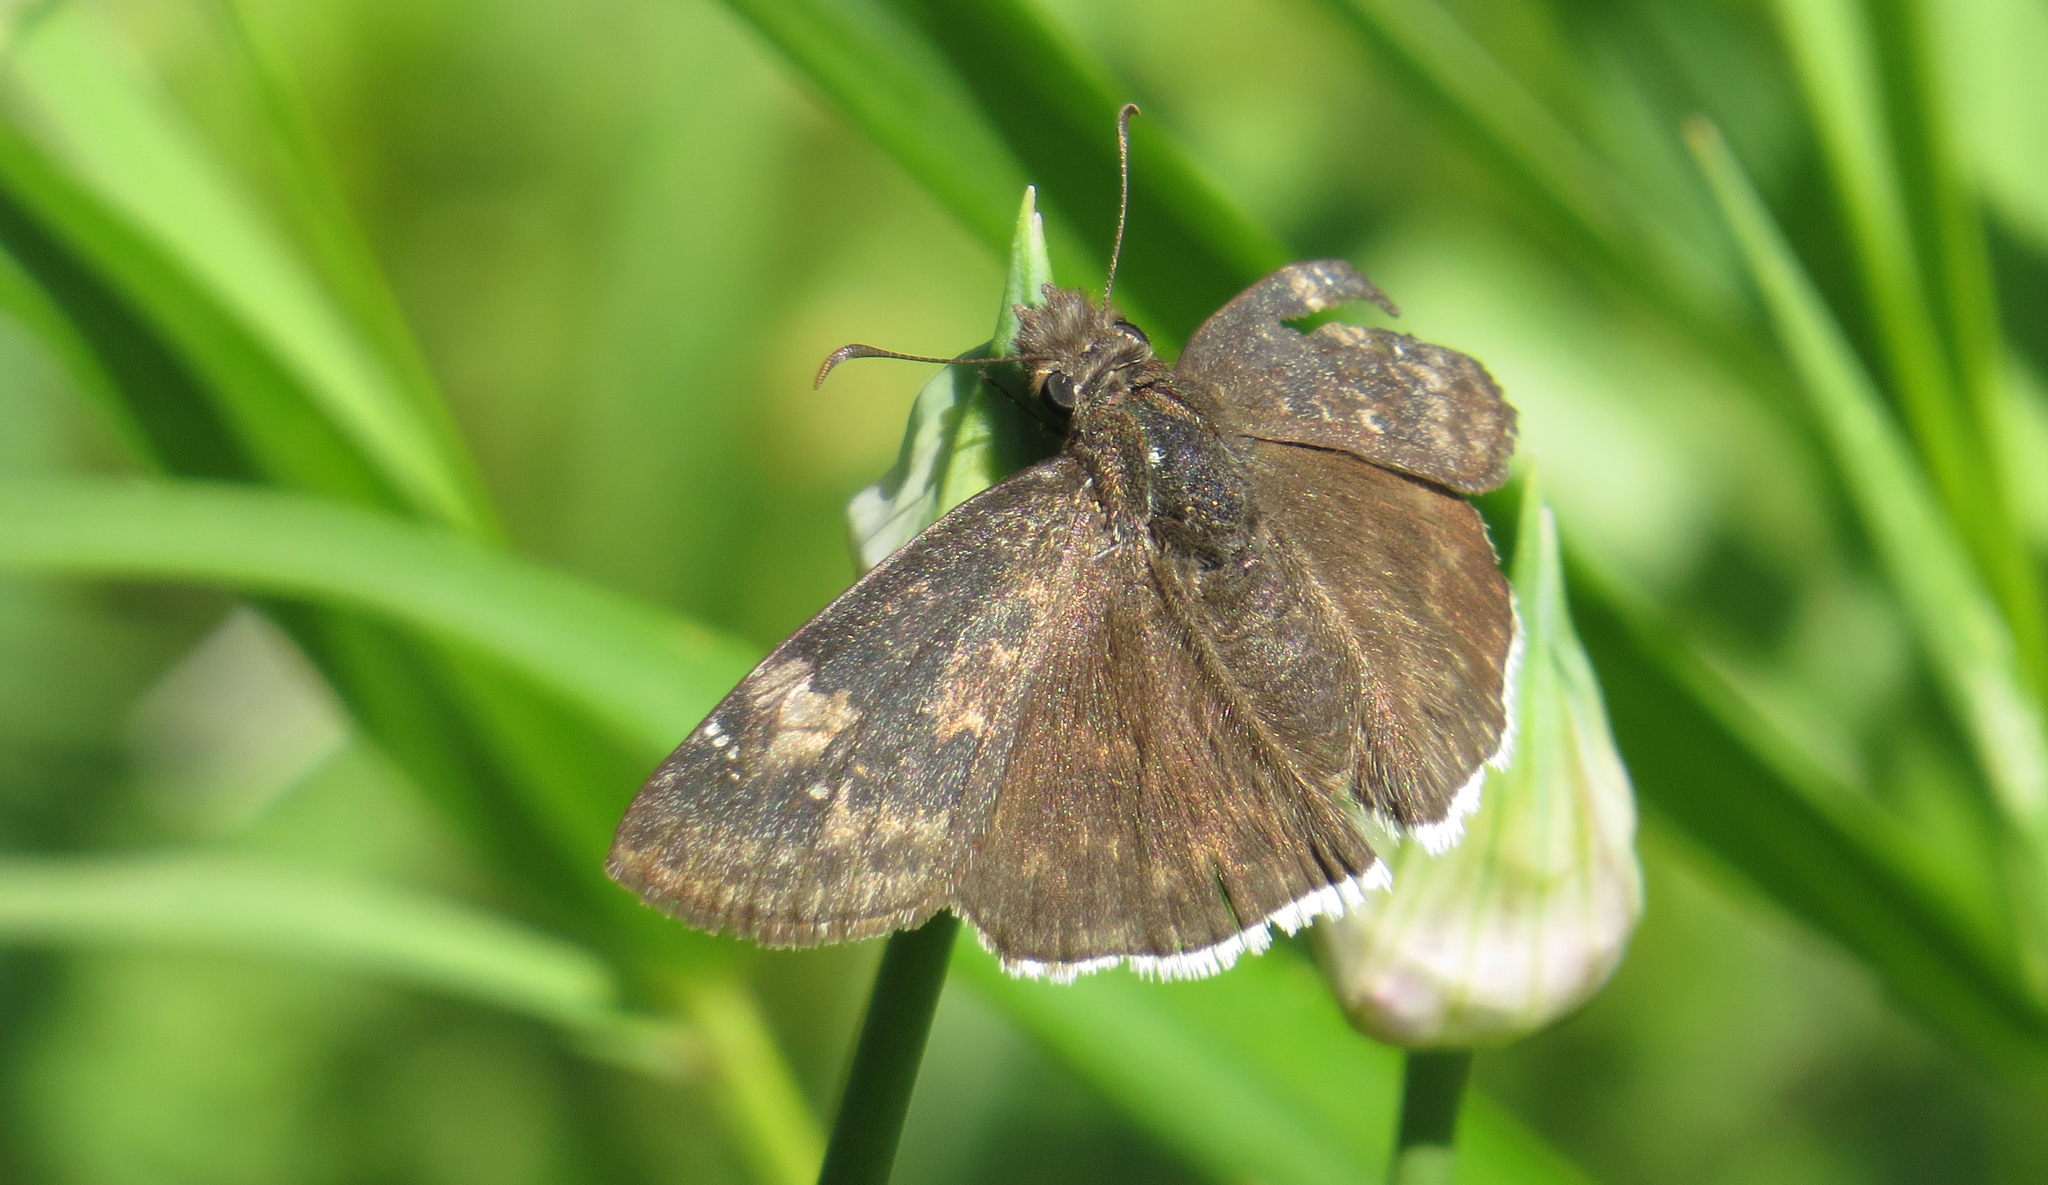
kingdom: Animalia
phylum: Arthropoda
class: Insecta
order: Lepidoptera
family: Hesperiidae
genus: Erynnis
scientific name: Erynnis funeralis
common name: Funereal duskywing
